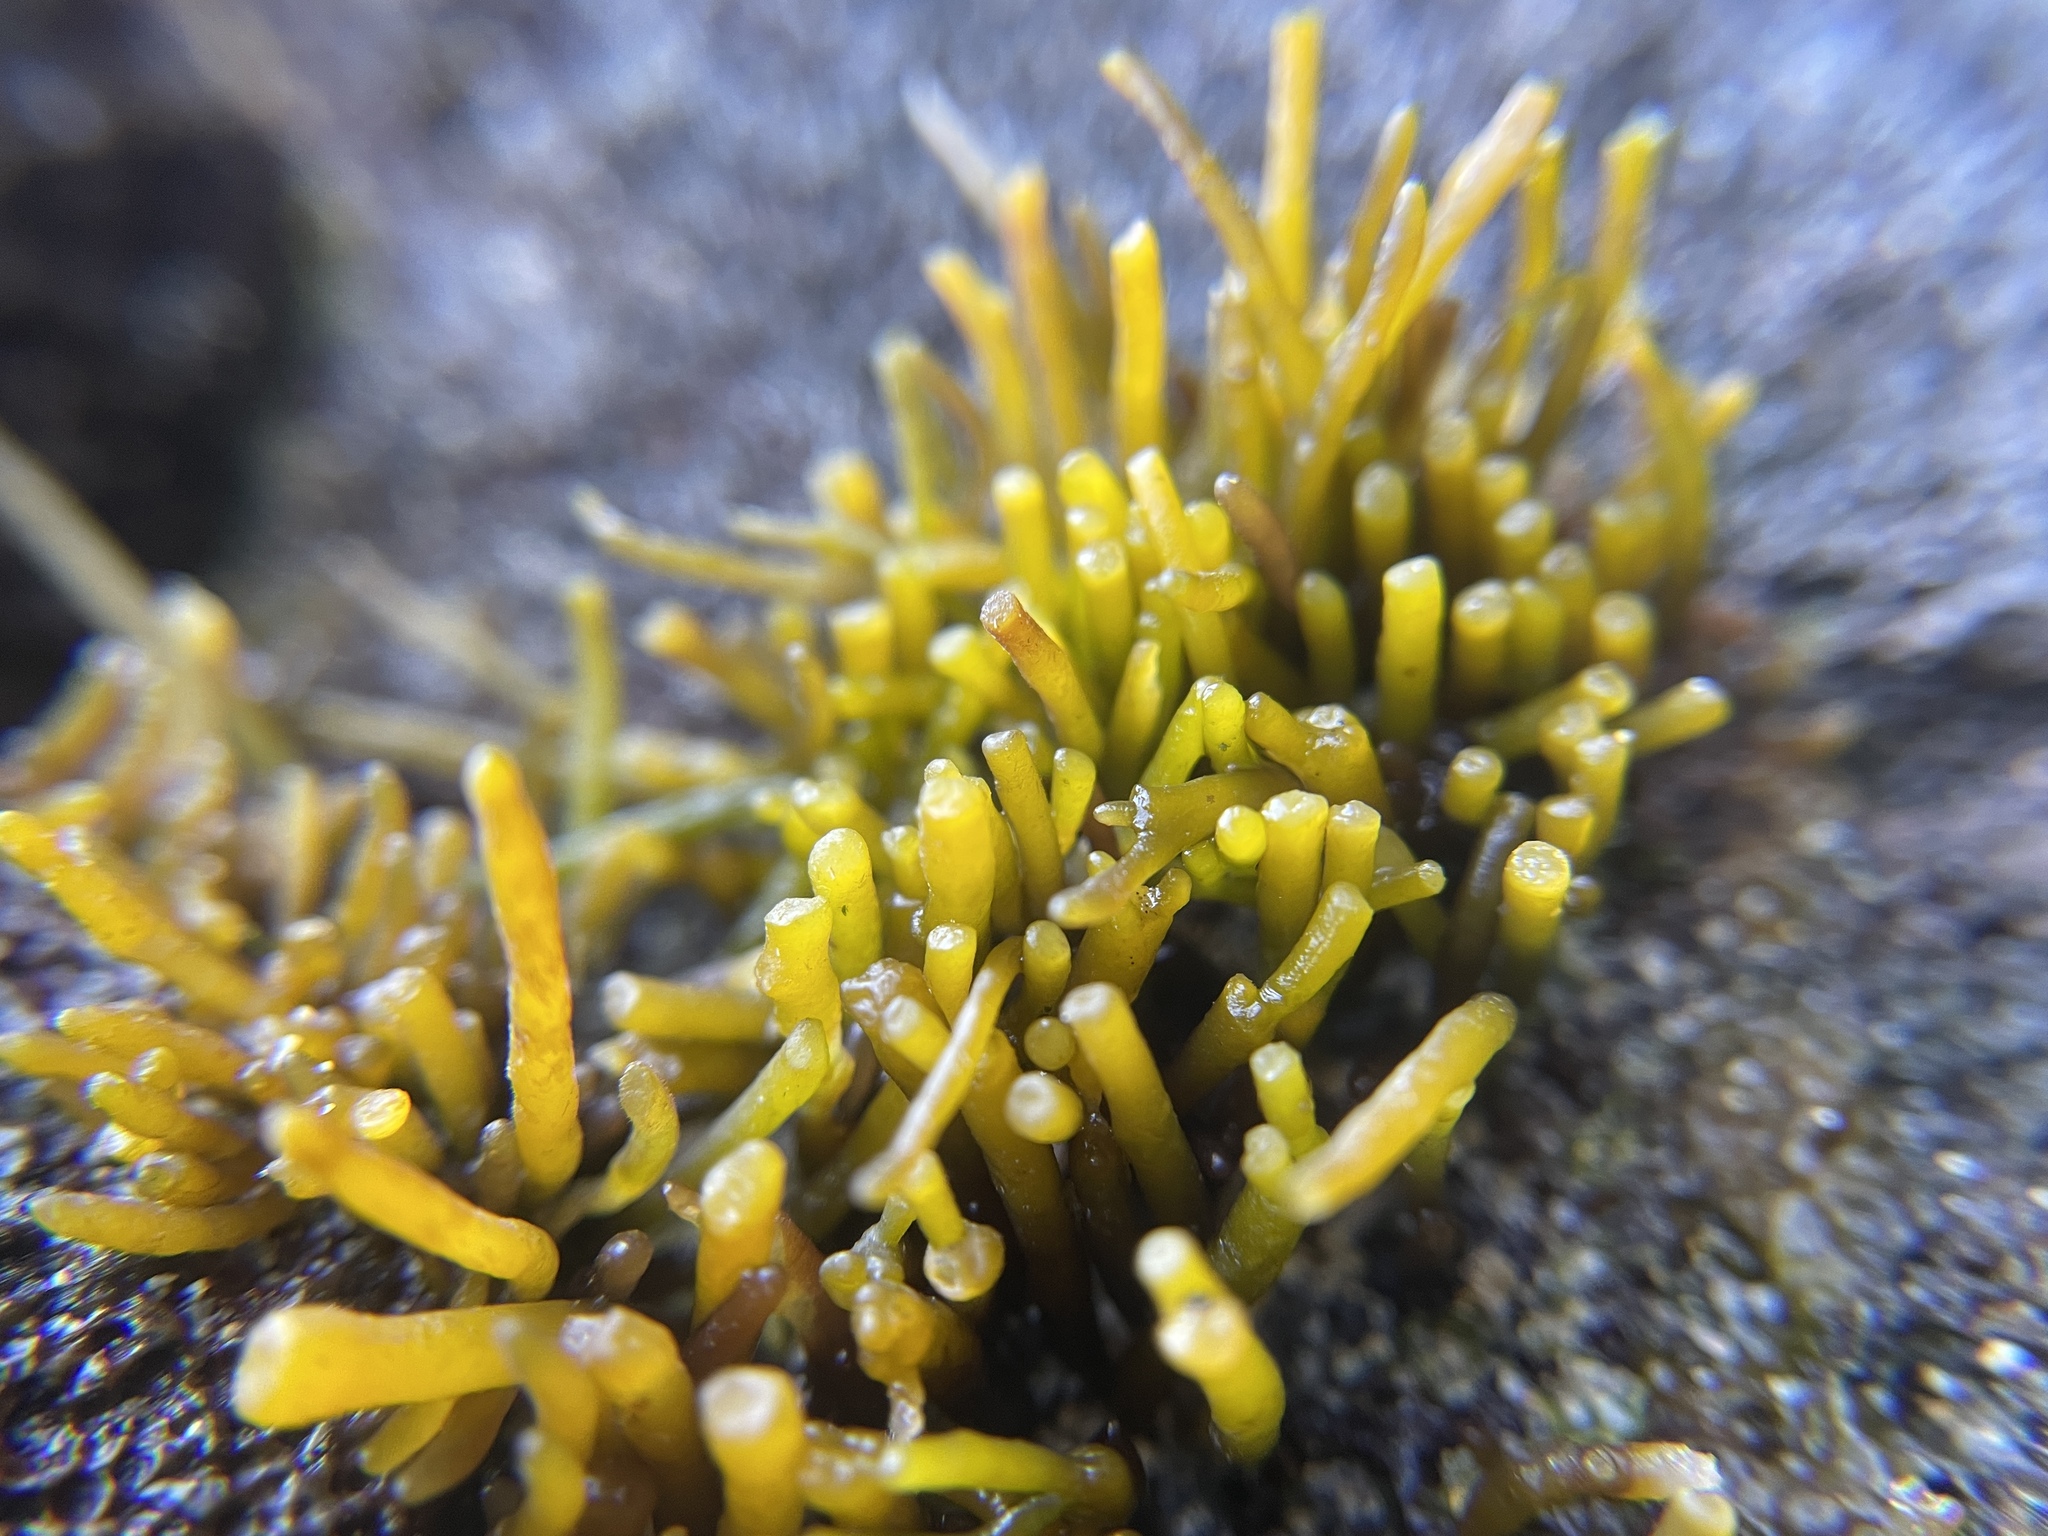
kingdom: Plantae
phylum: Rhodophyta
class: Florideophyceae
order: Gigartinales
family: Phyllophoraceae
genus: Gymnogongrus
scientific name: Gymnogongrus durvillei
